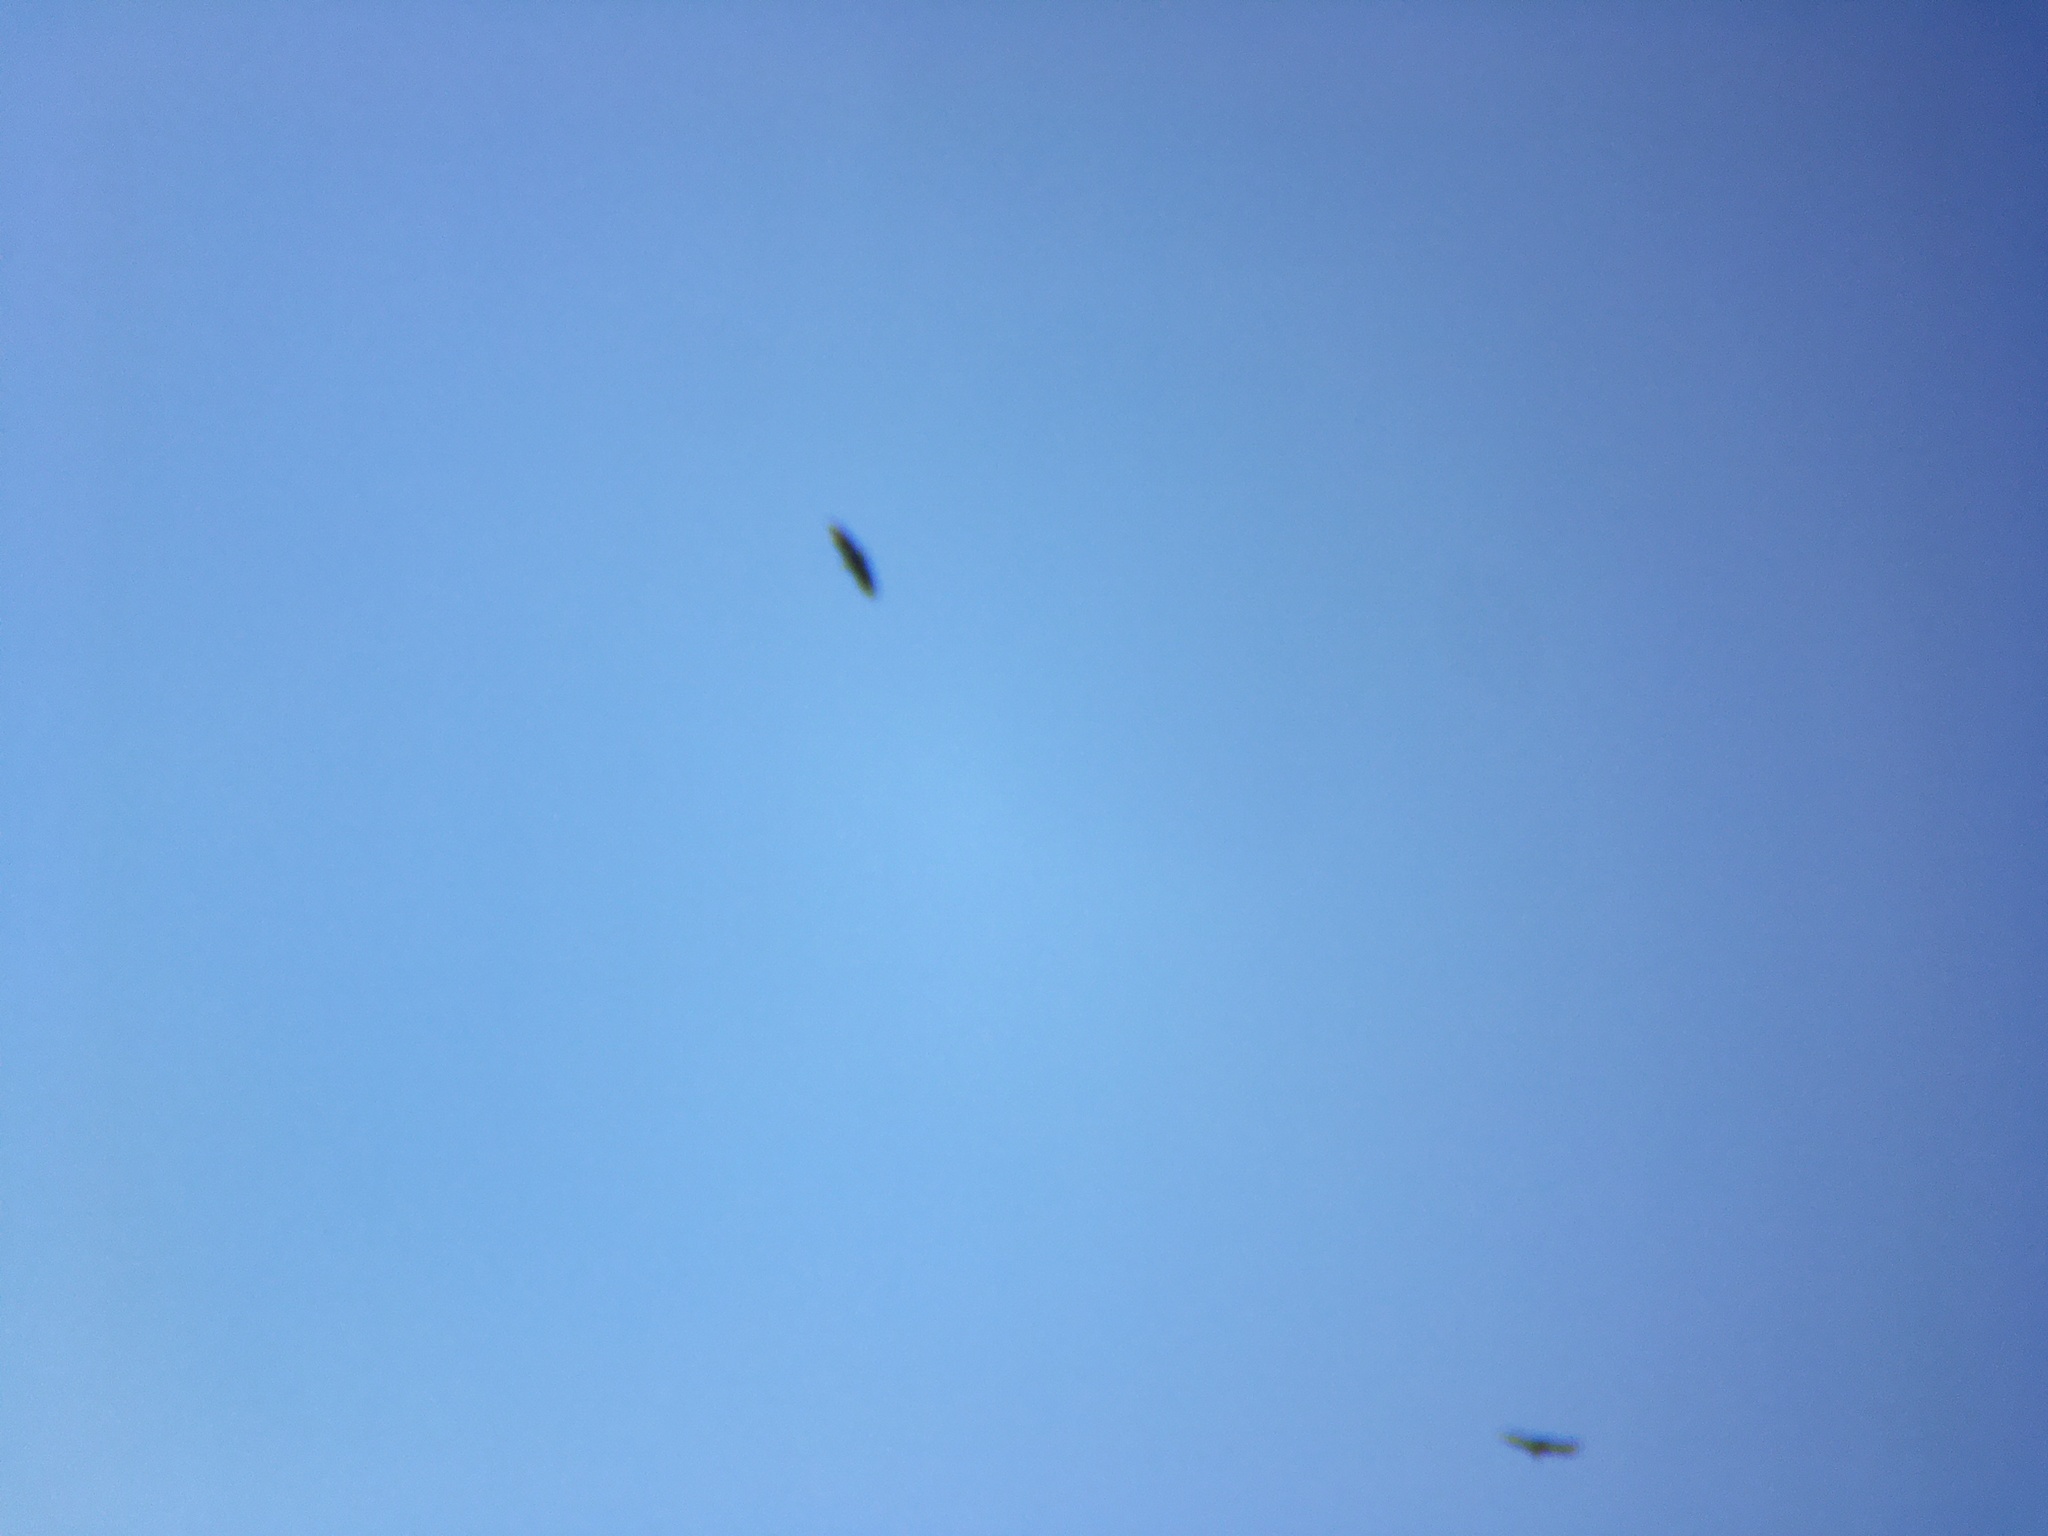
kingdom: Animalia
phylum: Chordata
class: Aves
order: Accipitriformes
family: Cathartidae
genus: Coragyps
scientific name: Coragyps atratus
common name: Black vulture
